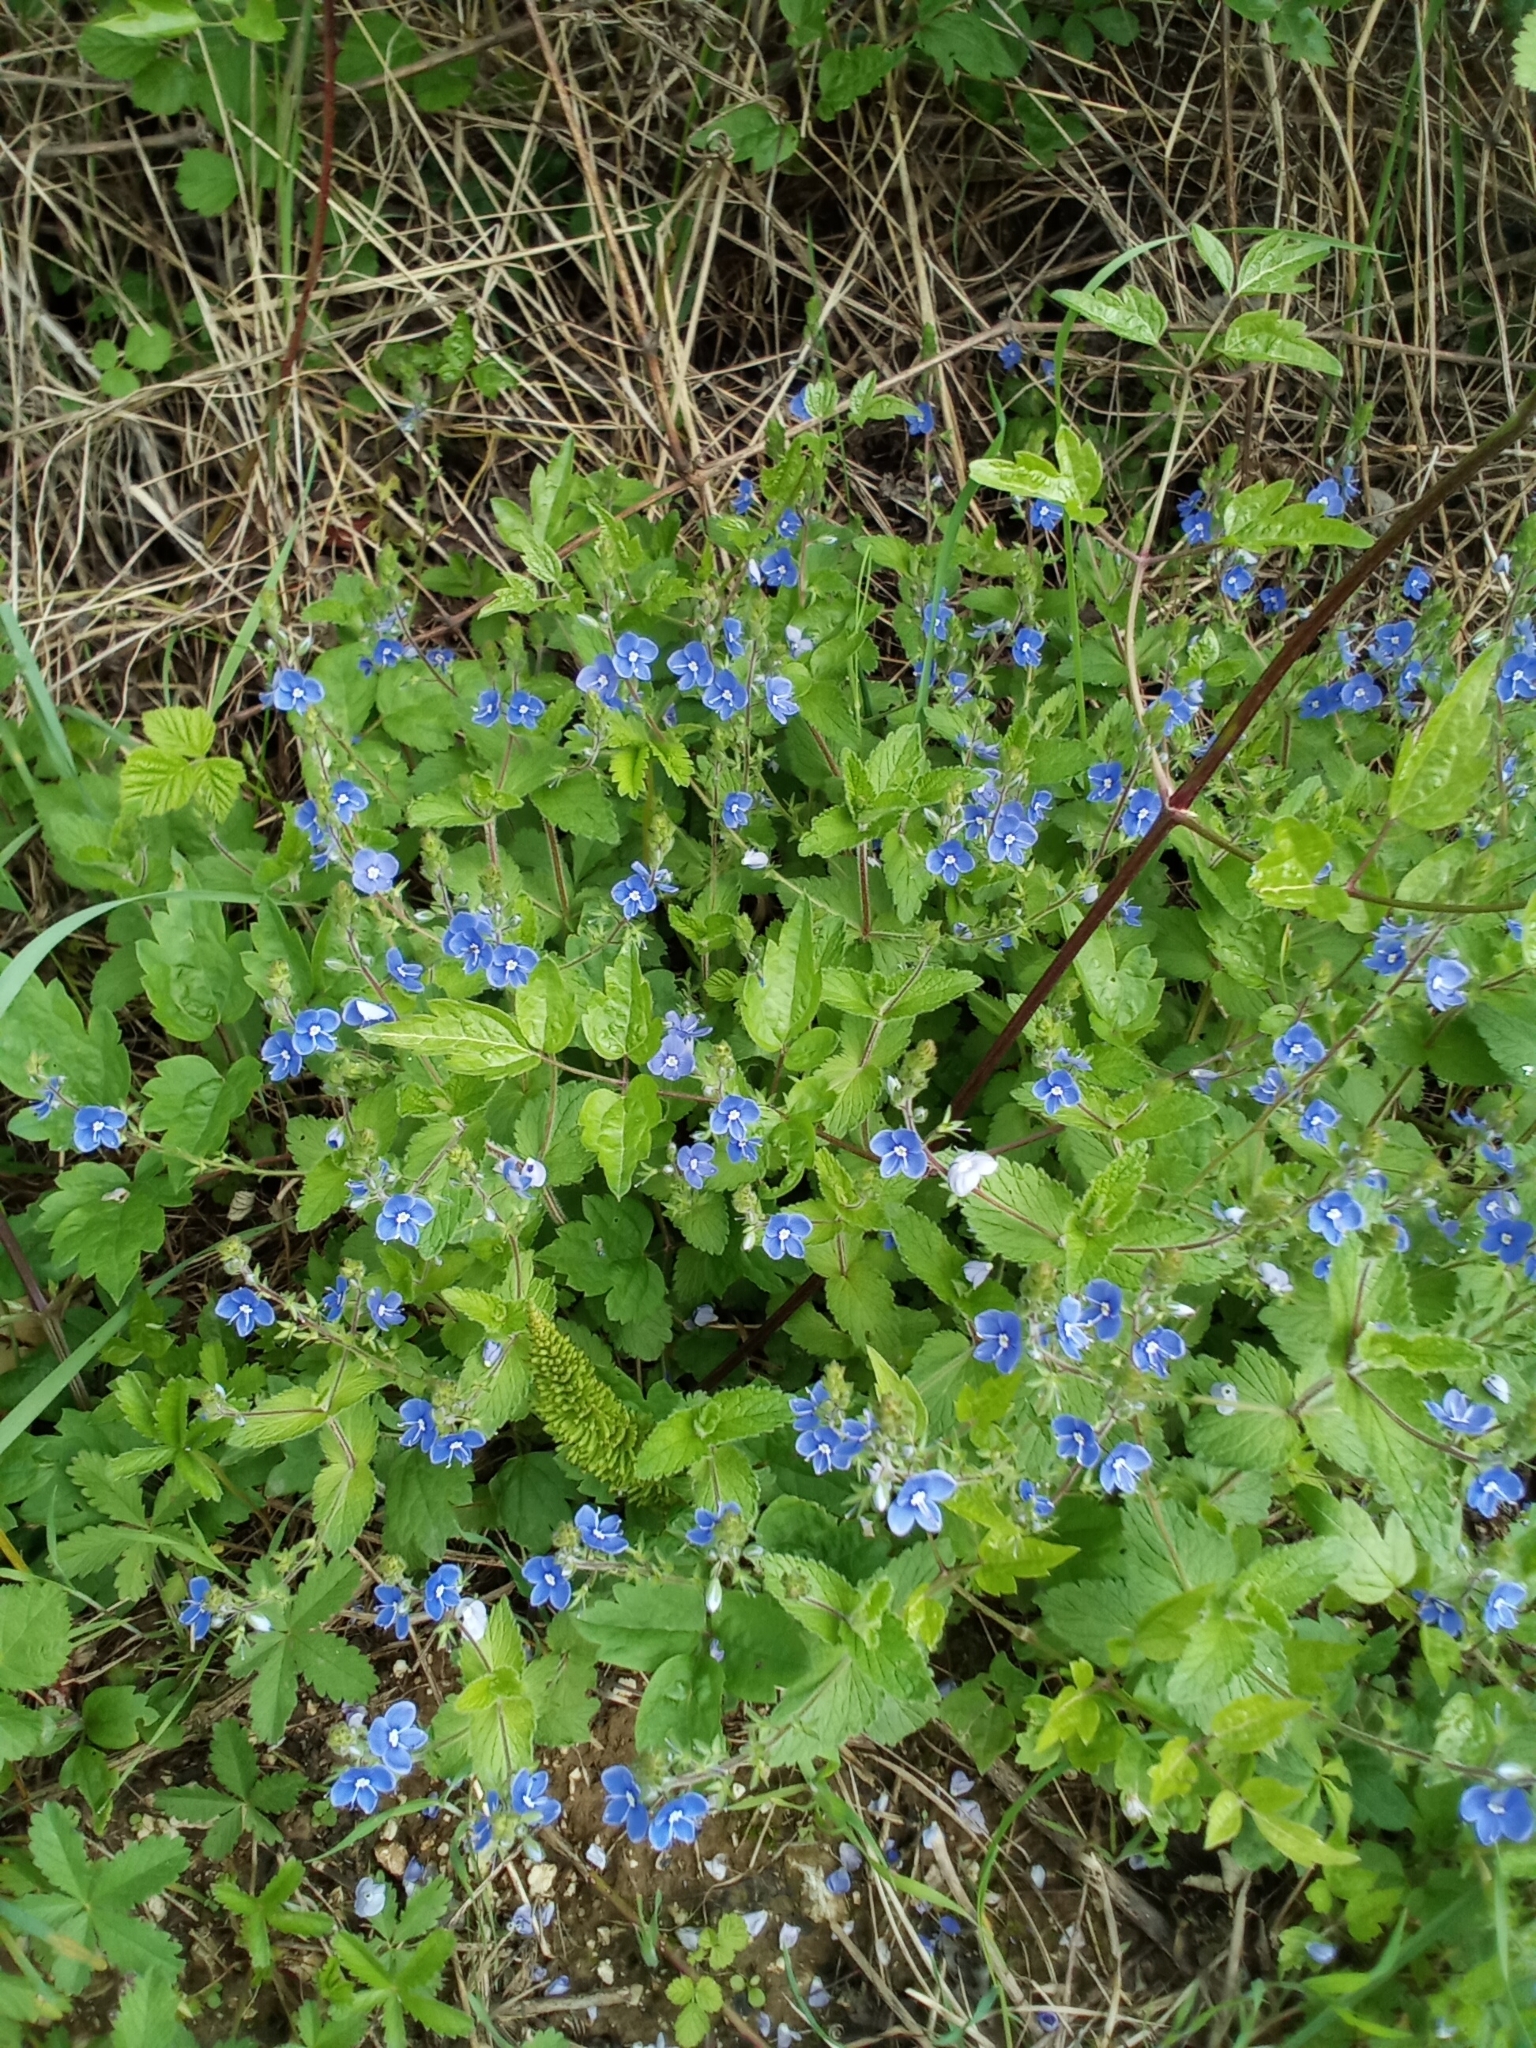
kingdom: Plantae
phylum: Tracheophyta
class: Magnoliopsida
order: Lamiales
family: Plantaginaceae
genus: Veronica
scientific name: Veronica chamaedrys
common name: Germander speedwell
